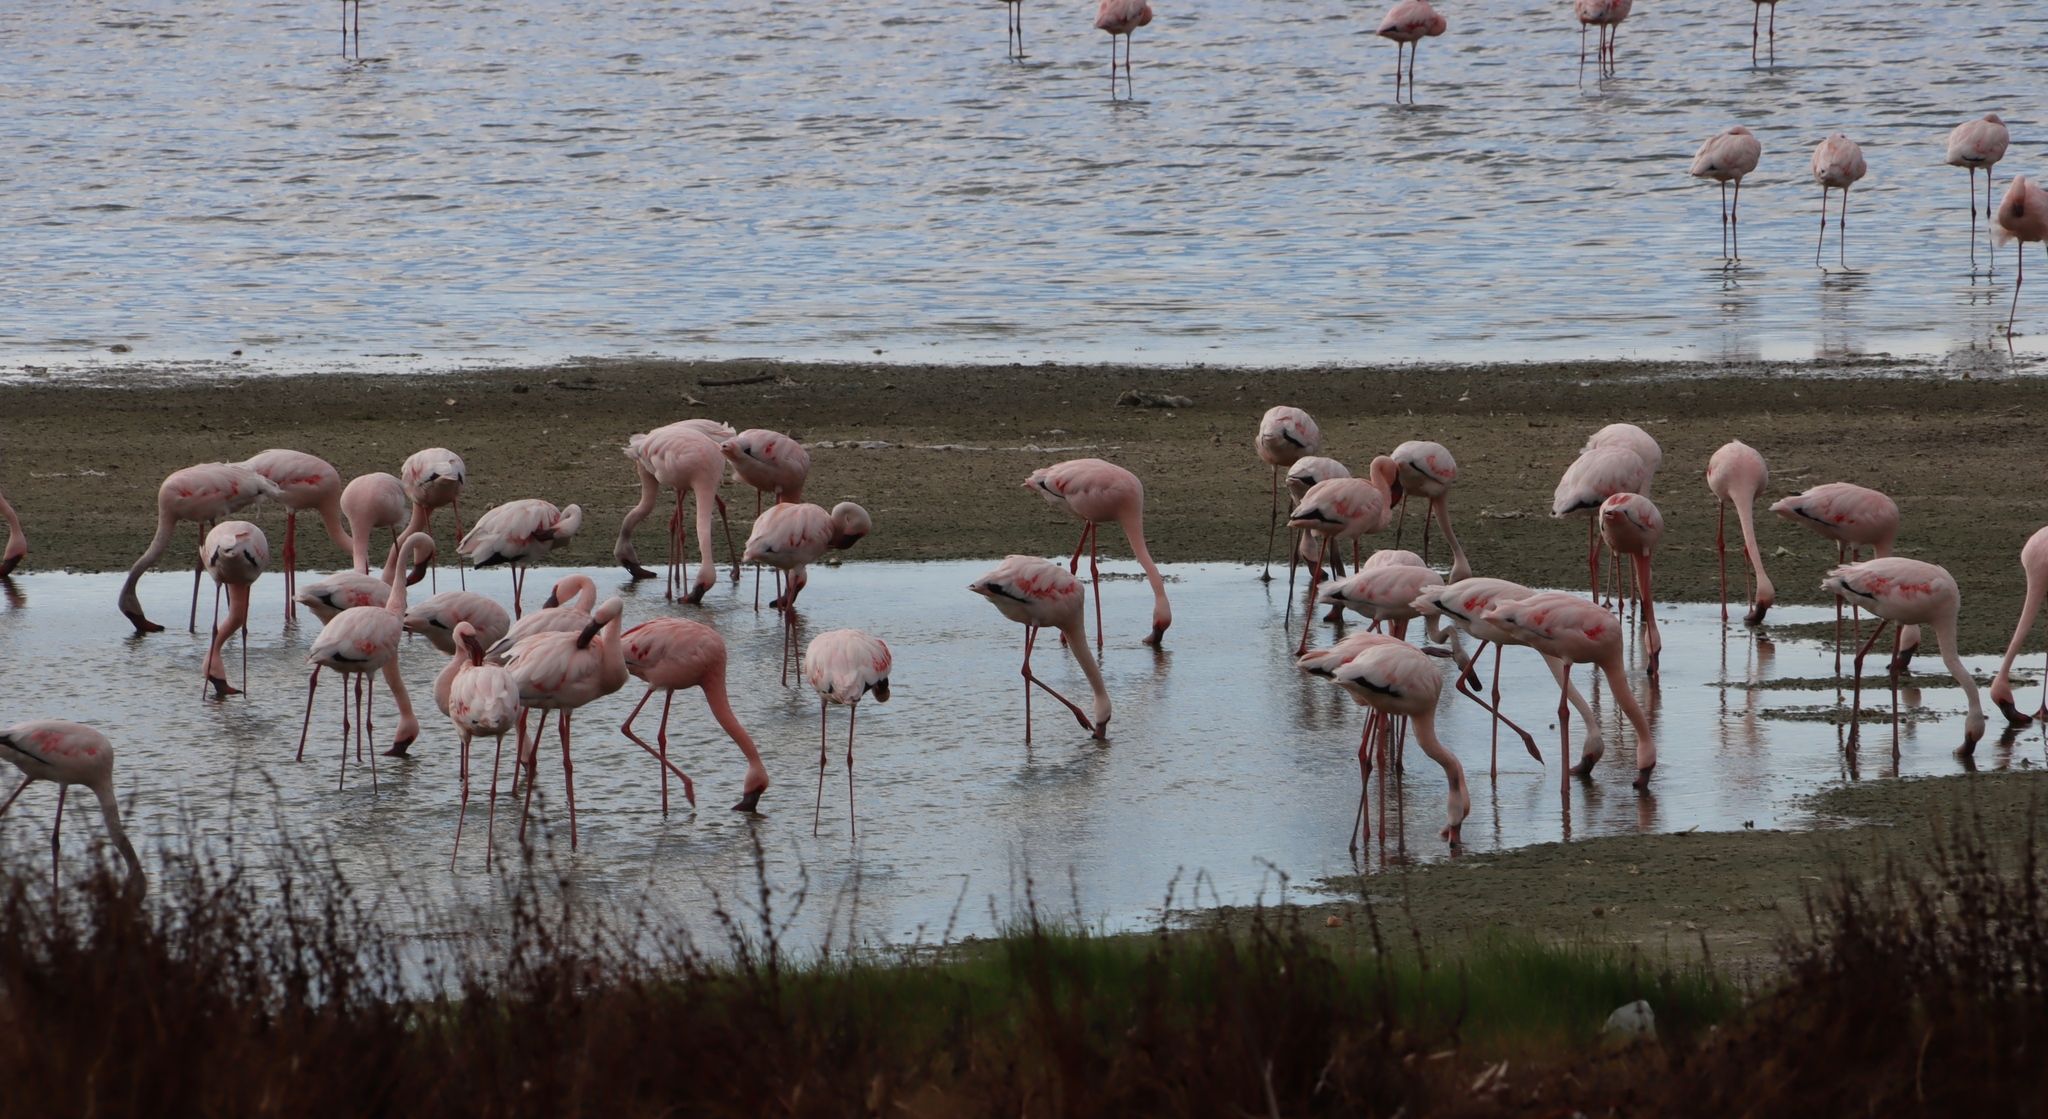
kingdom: Animalia
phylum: Chordata
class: Aves
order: Phoenicopteriformes
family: Phoenicopteridae
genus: Phoeniconaias
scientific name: Phoeniconaias minor
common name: Lesser flamingo
